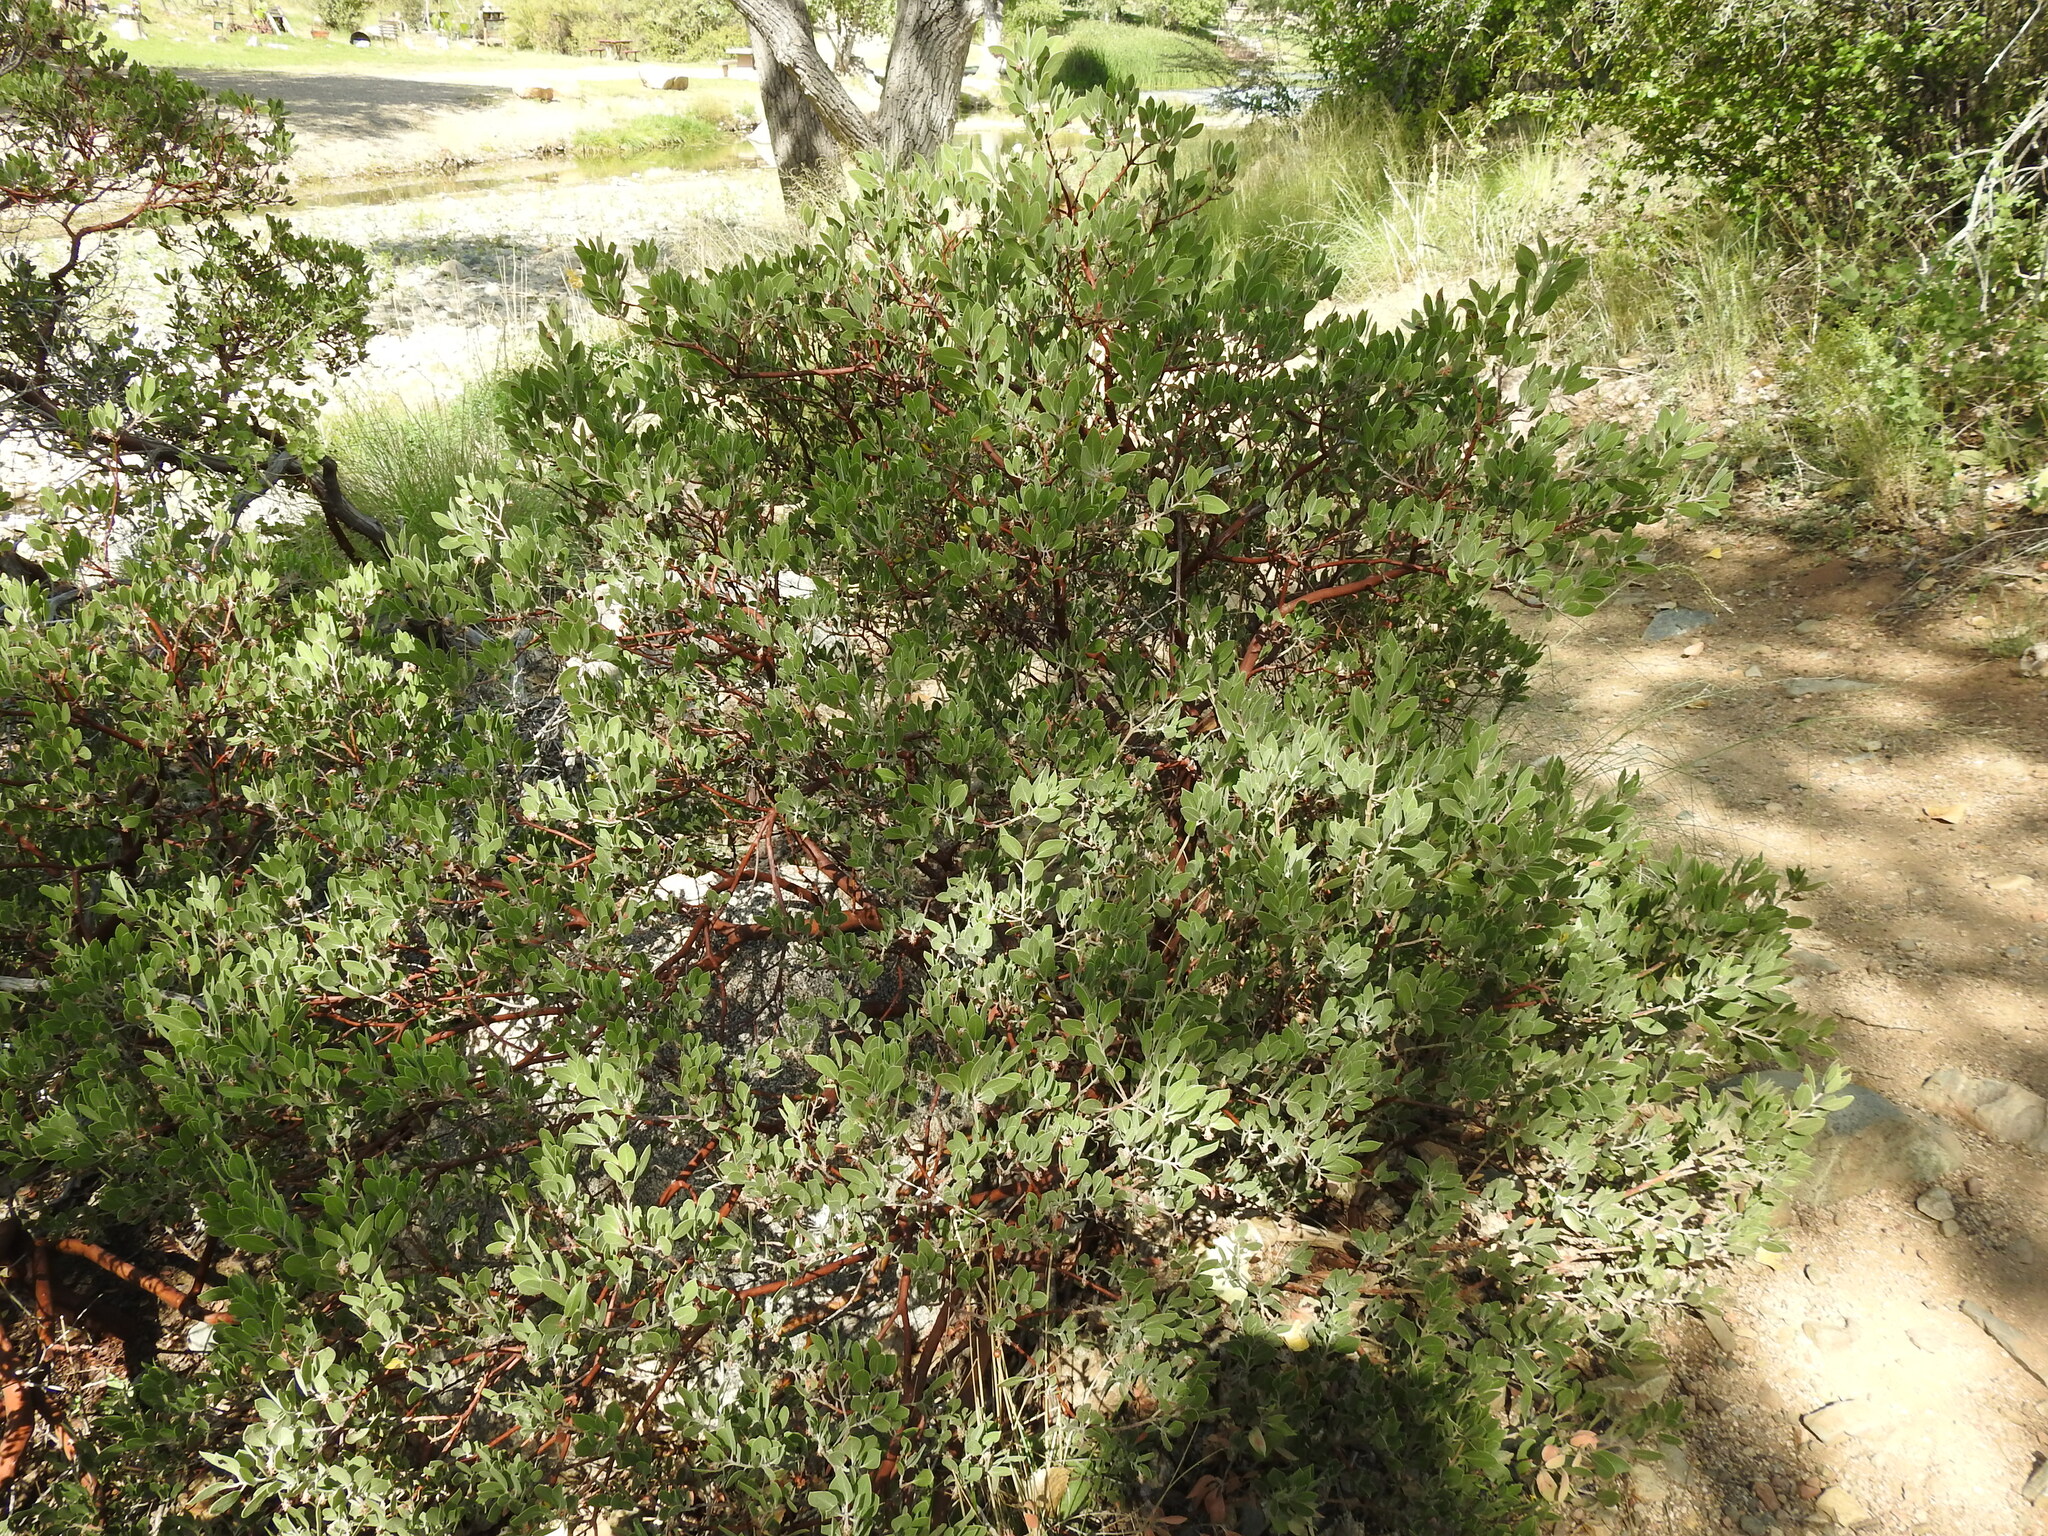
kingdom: Plantae
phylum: Tracheophyta
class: Magnoliopsida
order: Ericales
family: Ericaceae
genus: Arctostaphylos
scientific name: Arctostaphylos pungens
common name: Mexican manzanita
